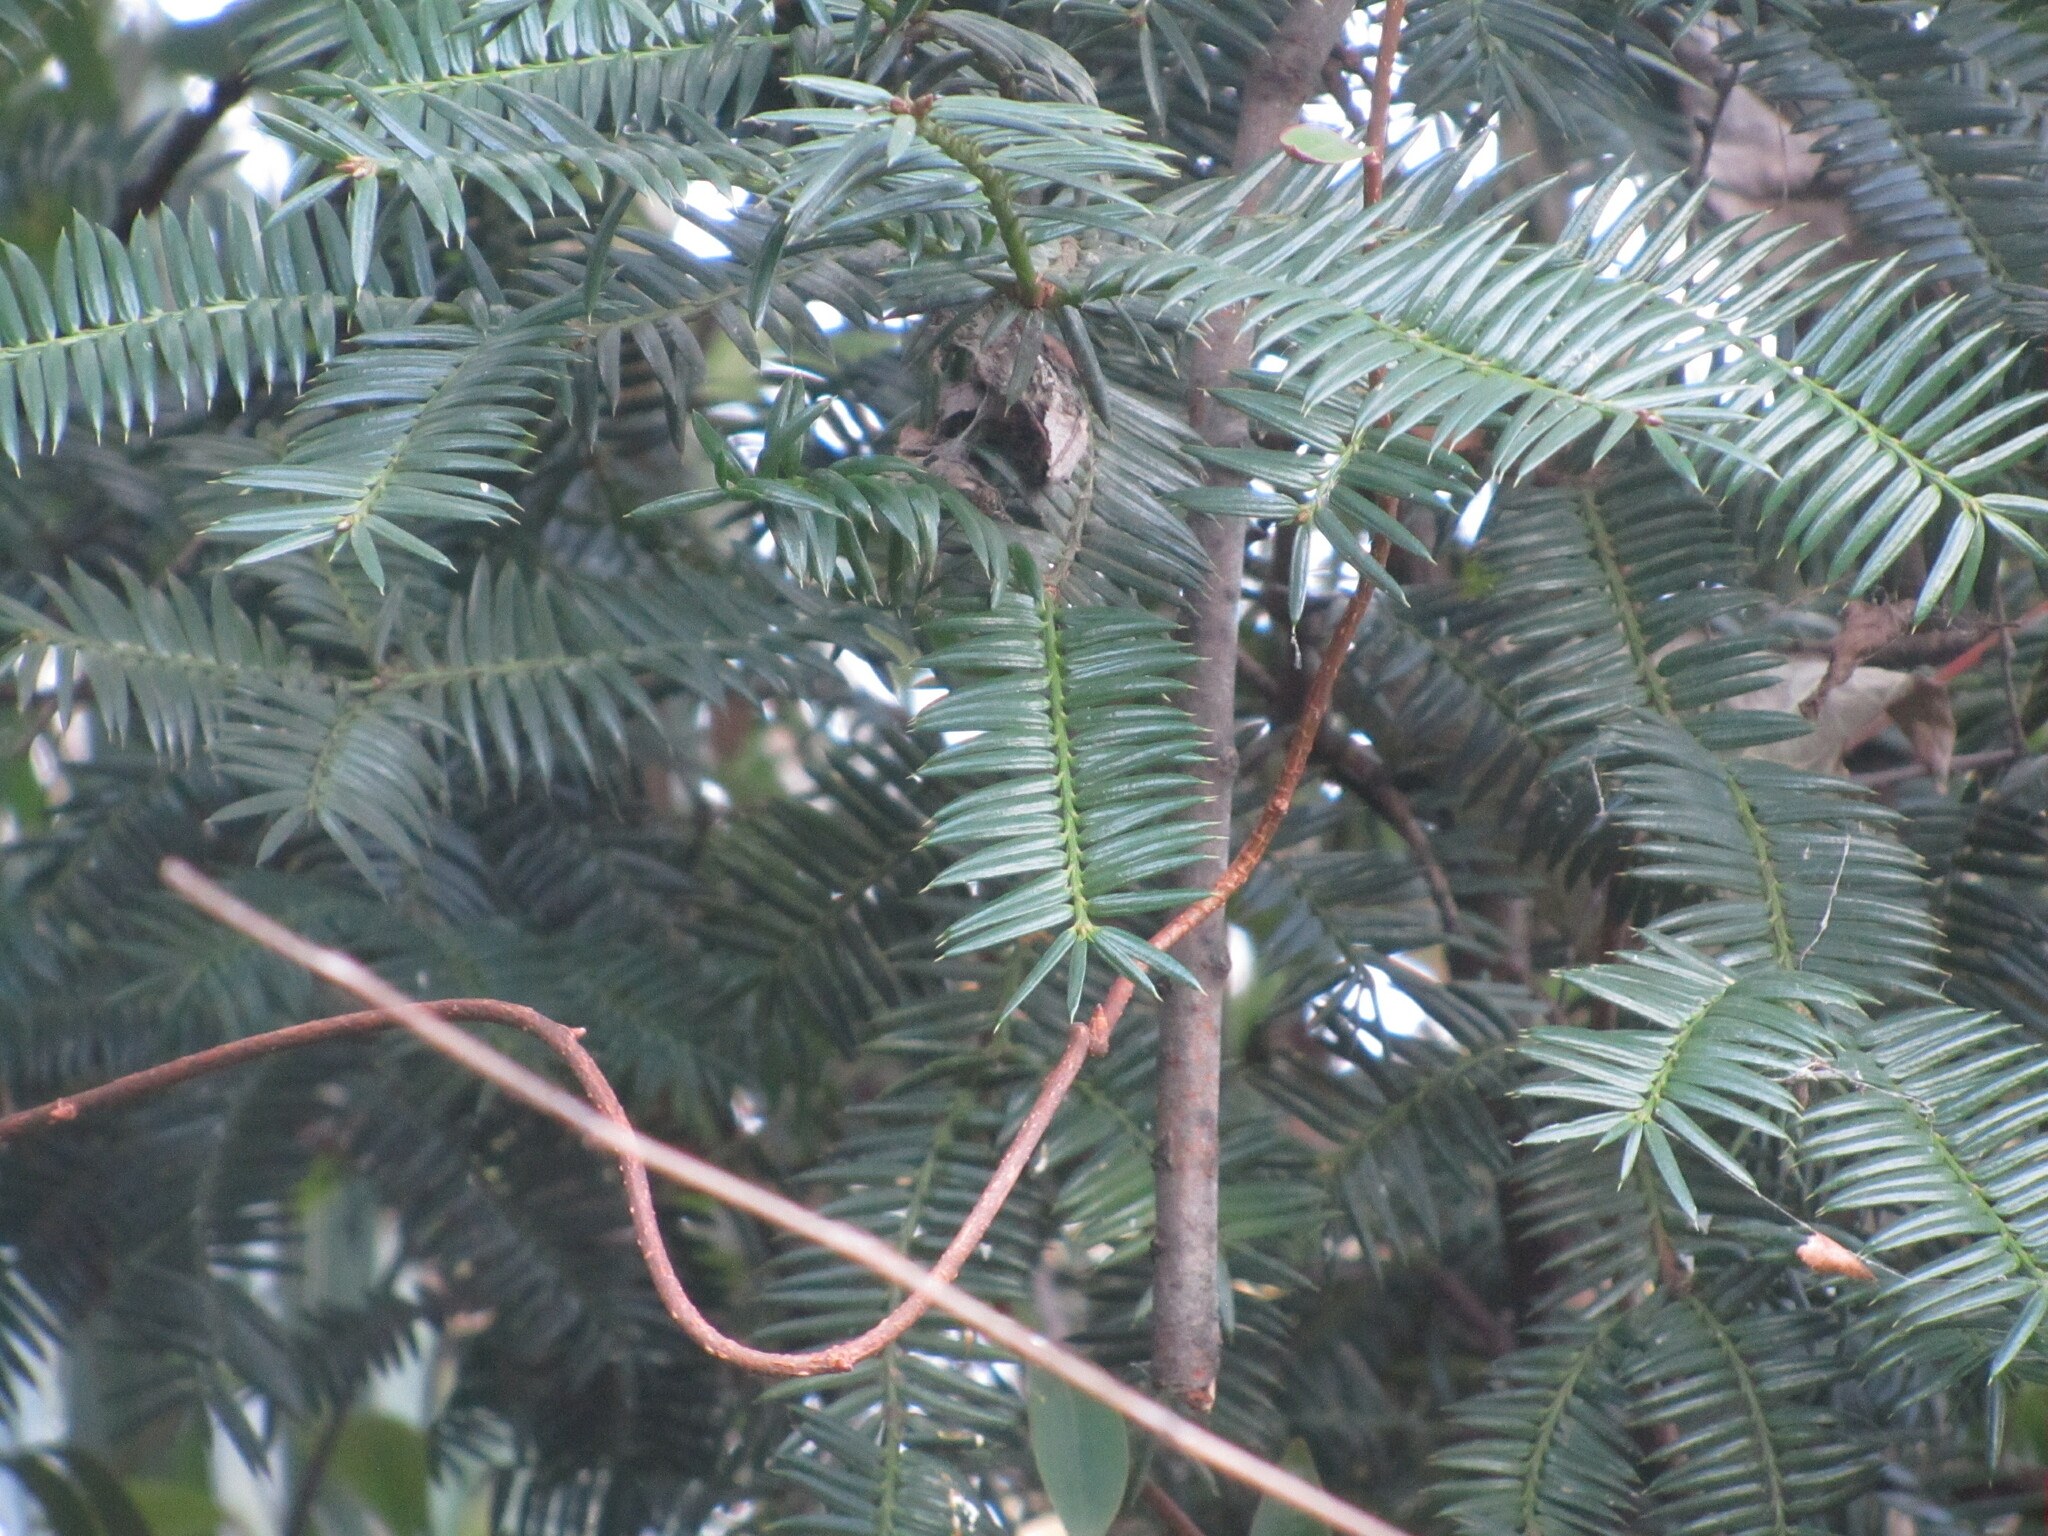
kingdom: Plantae
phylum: Tracheophyta
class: Pinopsida
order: Pinales
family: Taxaceae
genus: Torreya
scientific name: Torreya nucifera
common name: Japanese nutmeg tree
